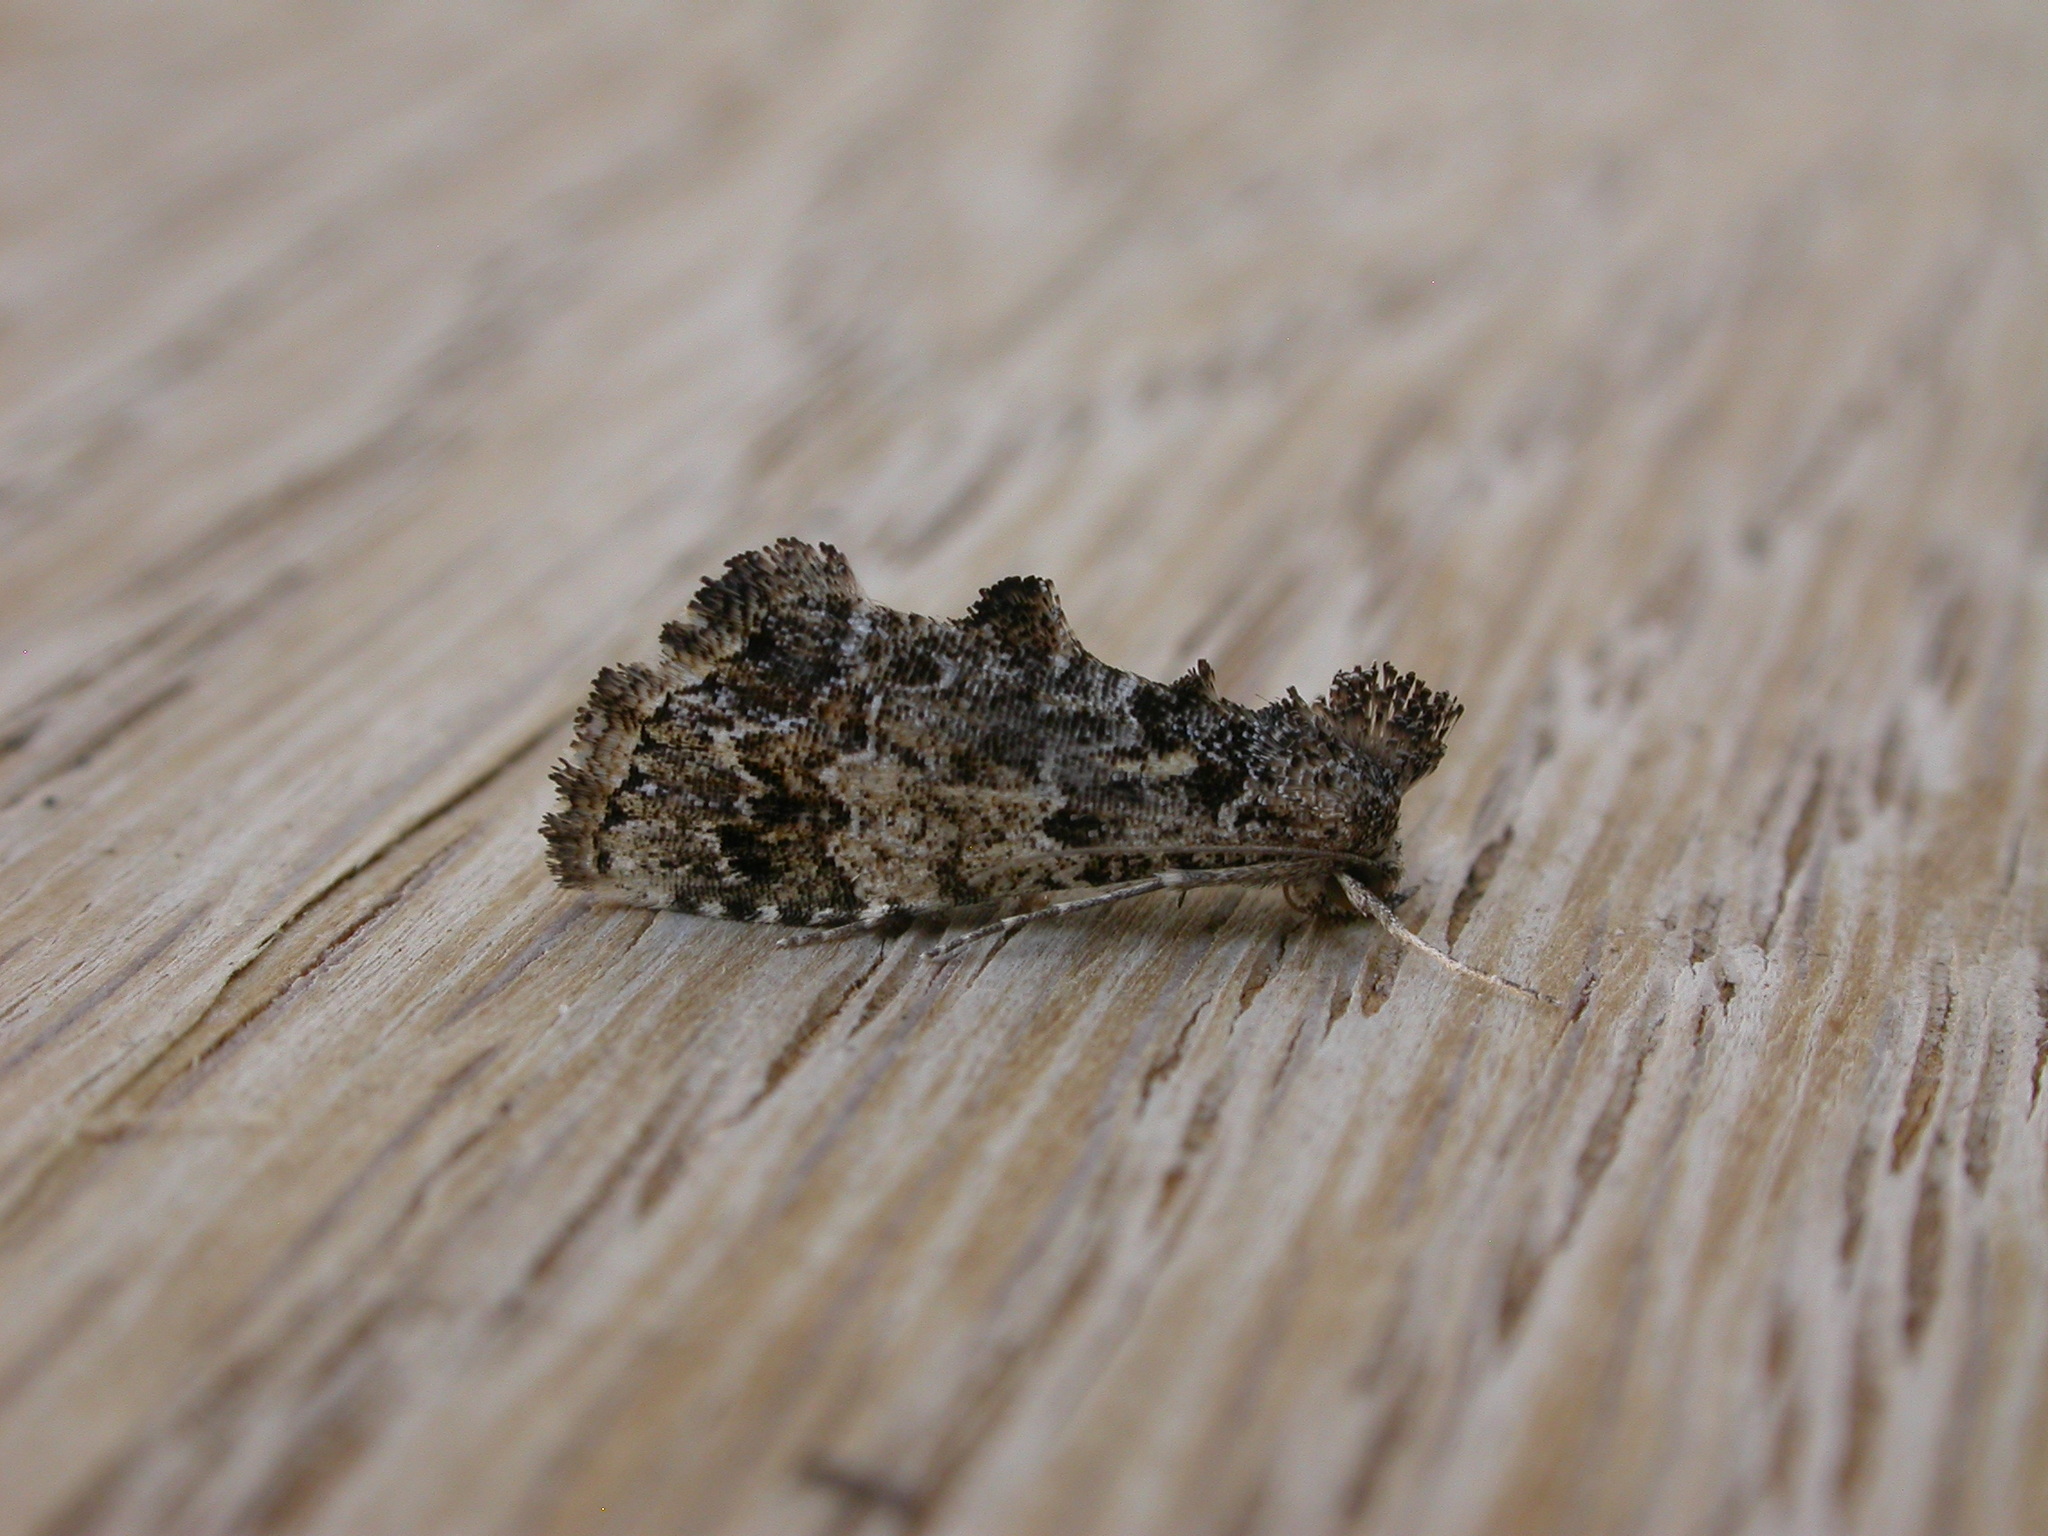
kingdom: Animalia
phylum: Arthropoda
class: Insecta
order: Lepidoptera
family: Erebidae
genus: Arrade
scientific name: Arrade destituta
